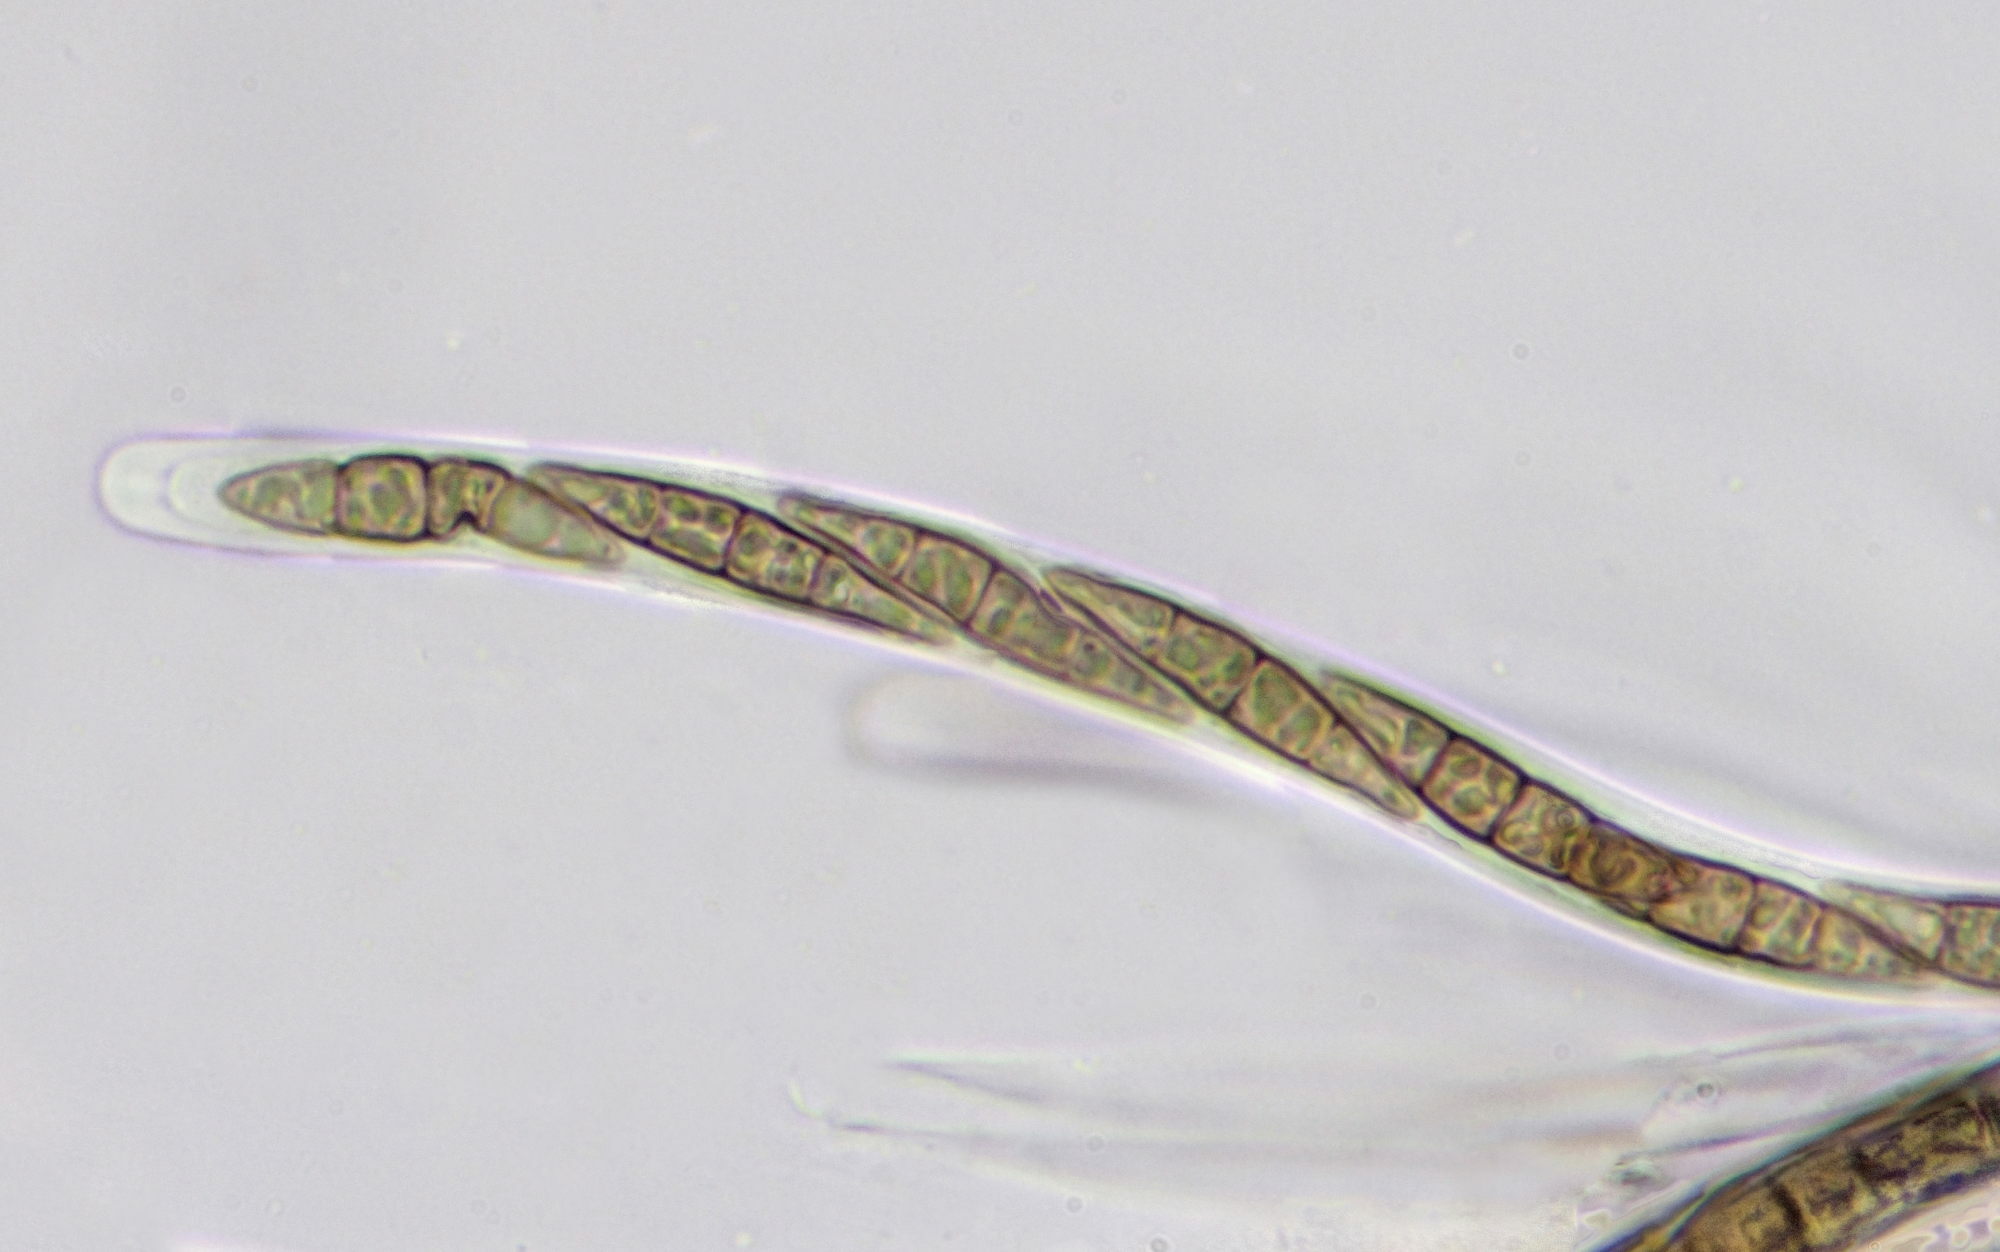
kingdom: Fungi
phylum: Ascomycota
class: Dothideomycetes
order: Pleosporales
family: Leptosphaeriaceae
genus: Leptosphaeria
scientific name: Leptosphaeria doliolum
